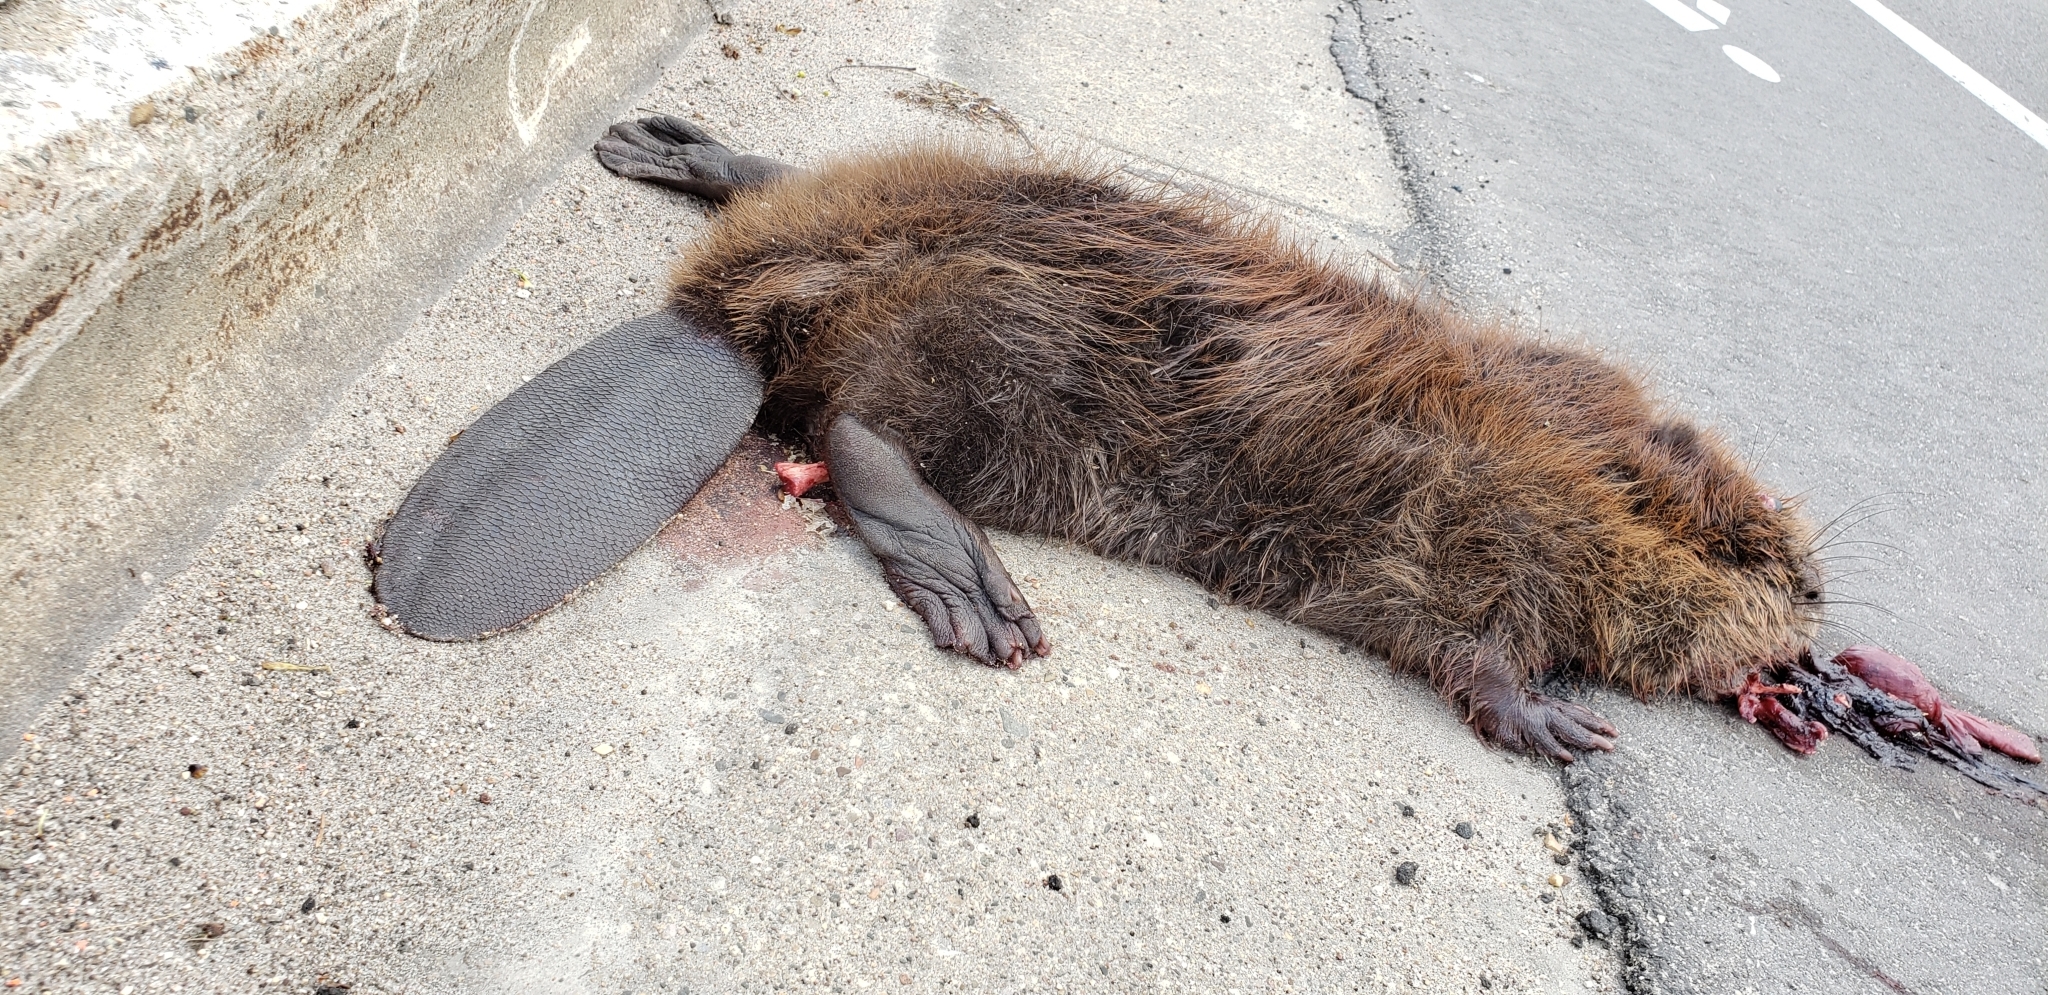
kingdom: Animalia
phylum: Chordata
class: Mammalia
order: Rodentia
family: Castoridae
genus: Castor
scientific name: Castor canadensis
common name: American beaver
